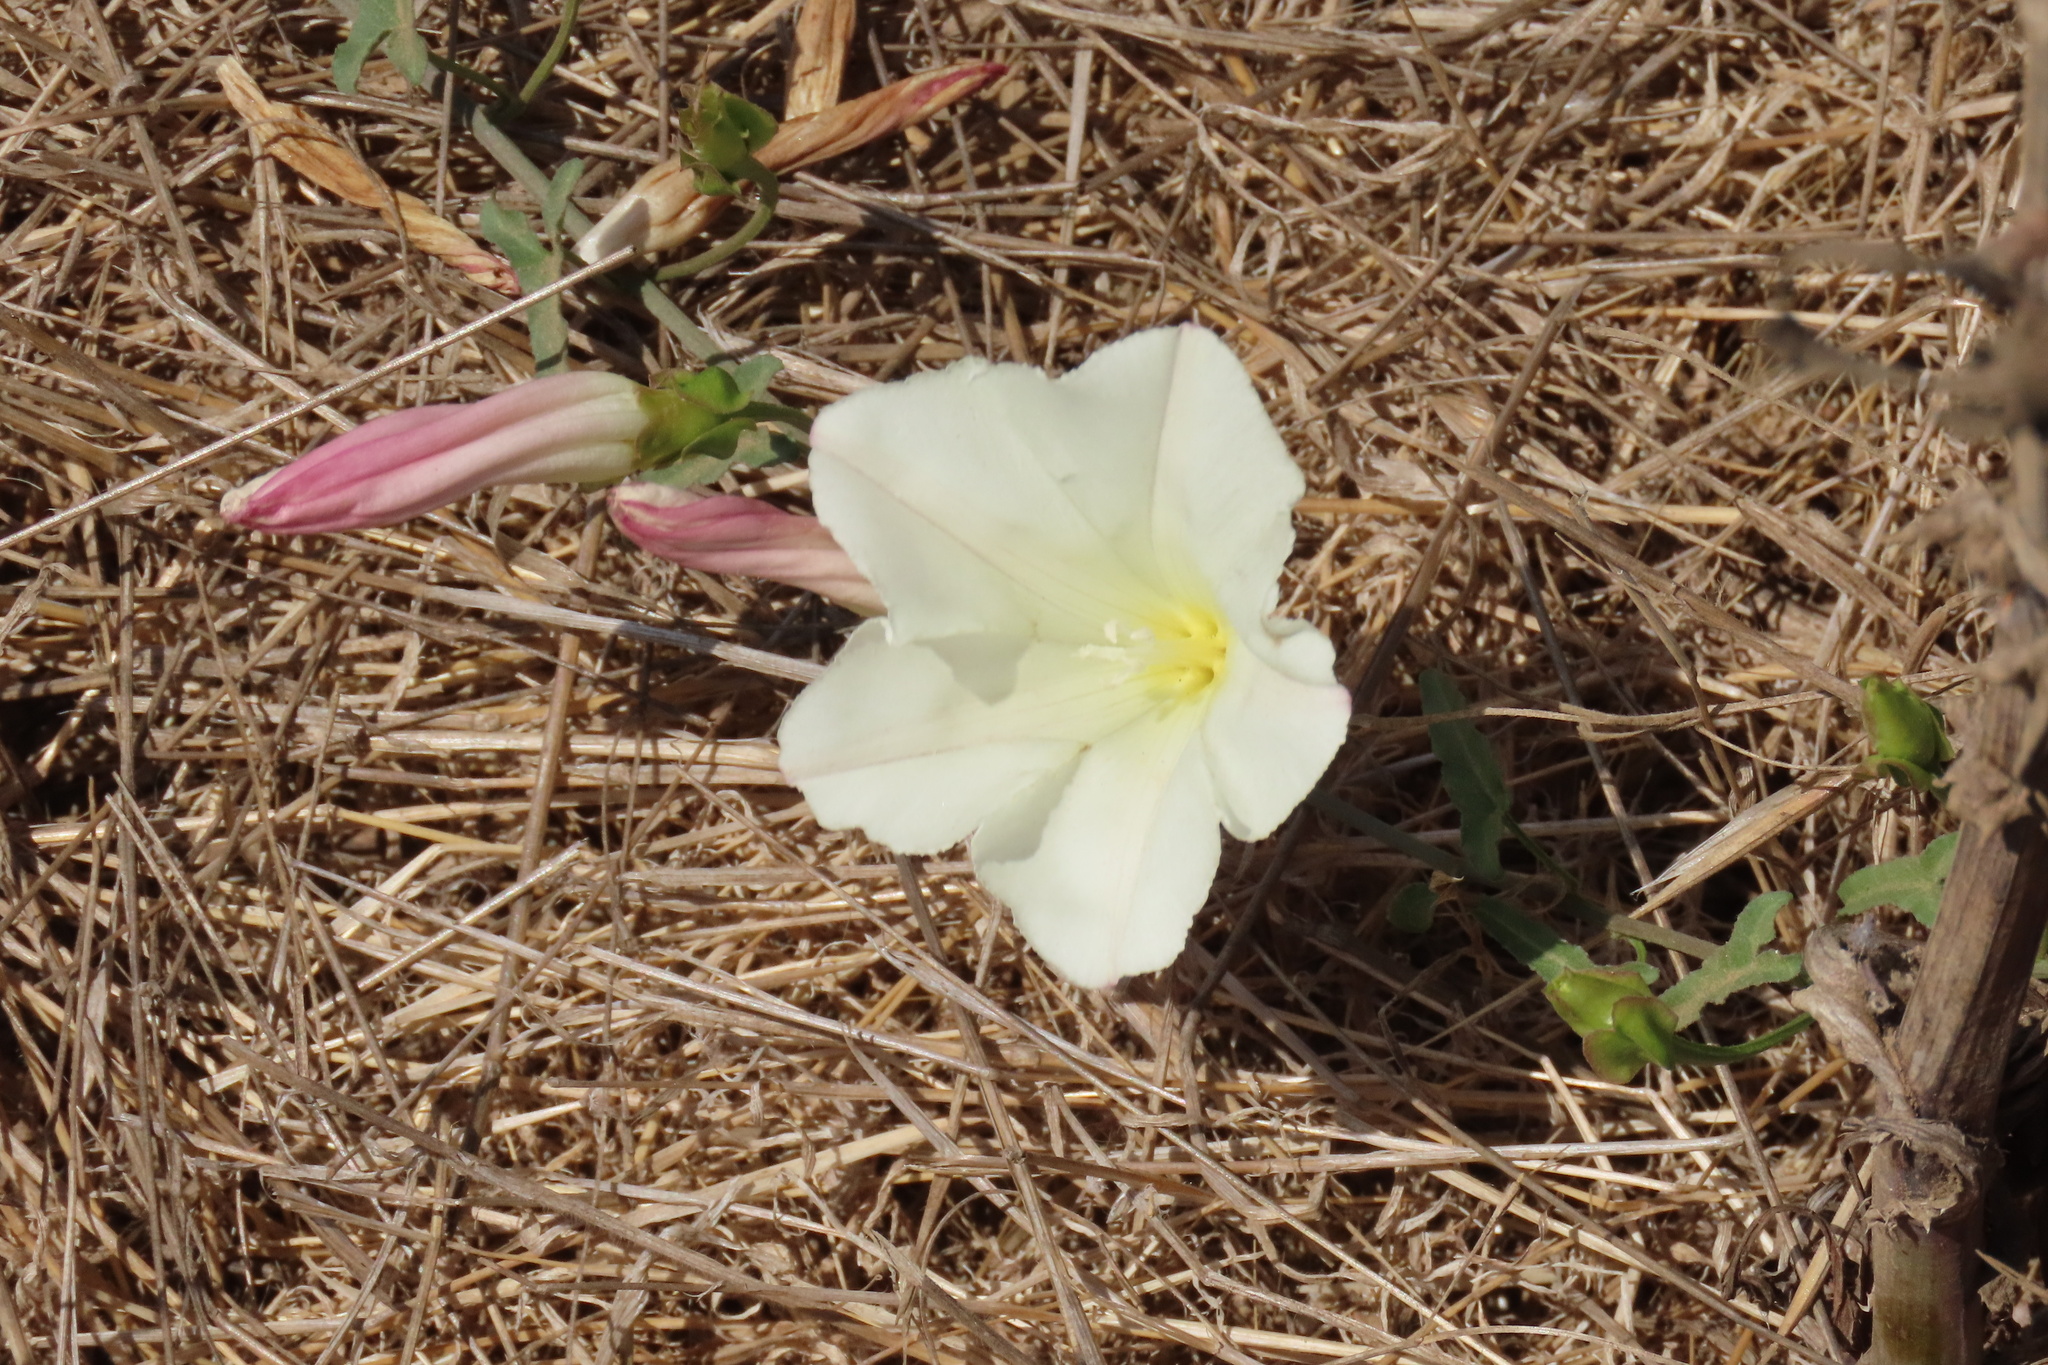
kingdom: Plantae
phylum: Tracheophyta
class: Magnoliopsida
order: Solanales
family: Convolvulaceae
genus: Calystegia
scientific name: Calystegia macrostegia
